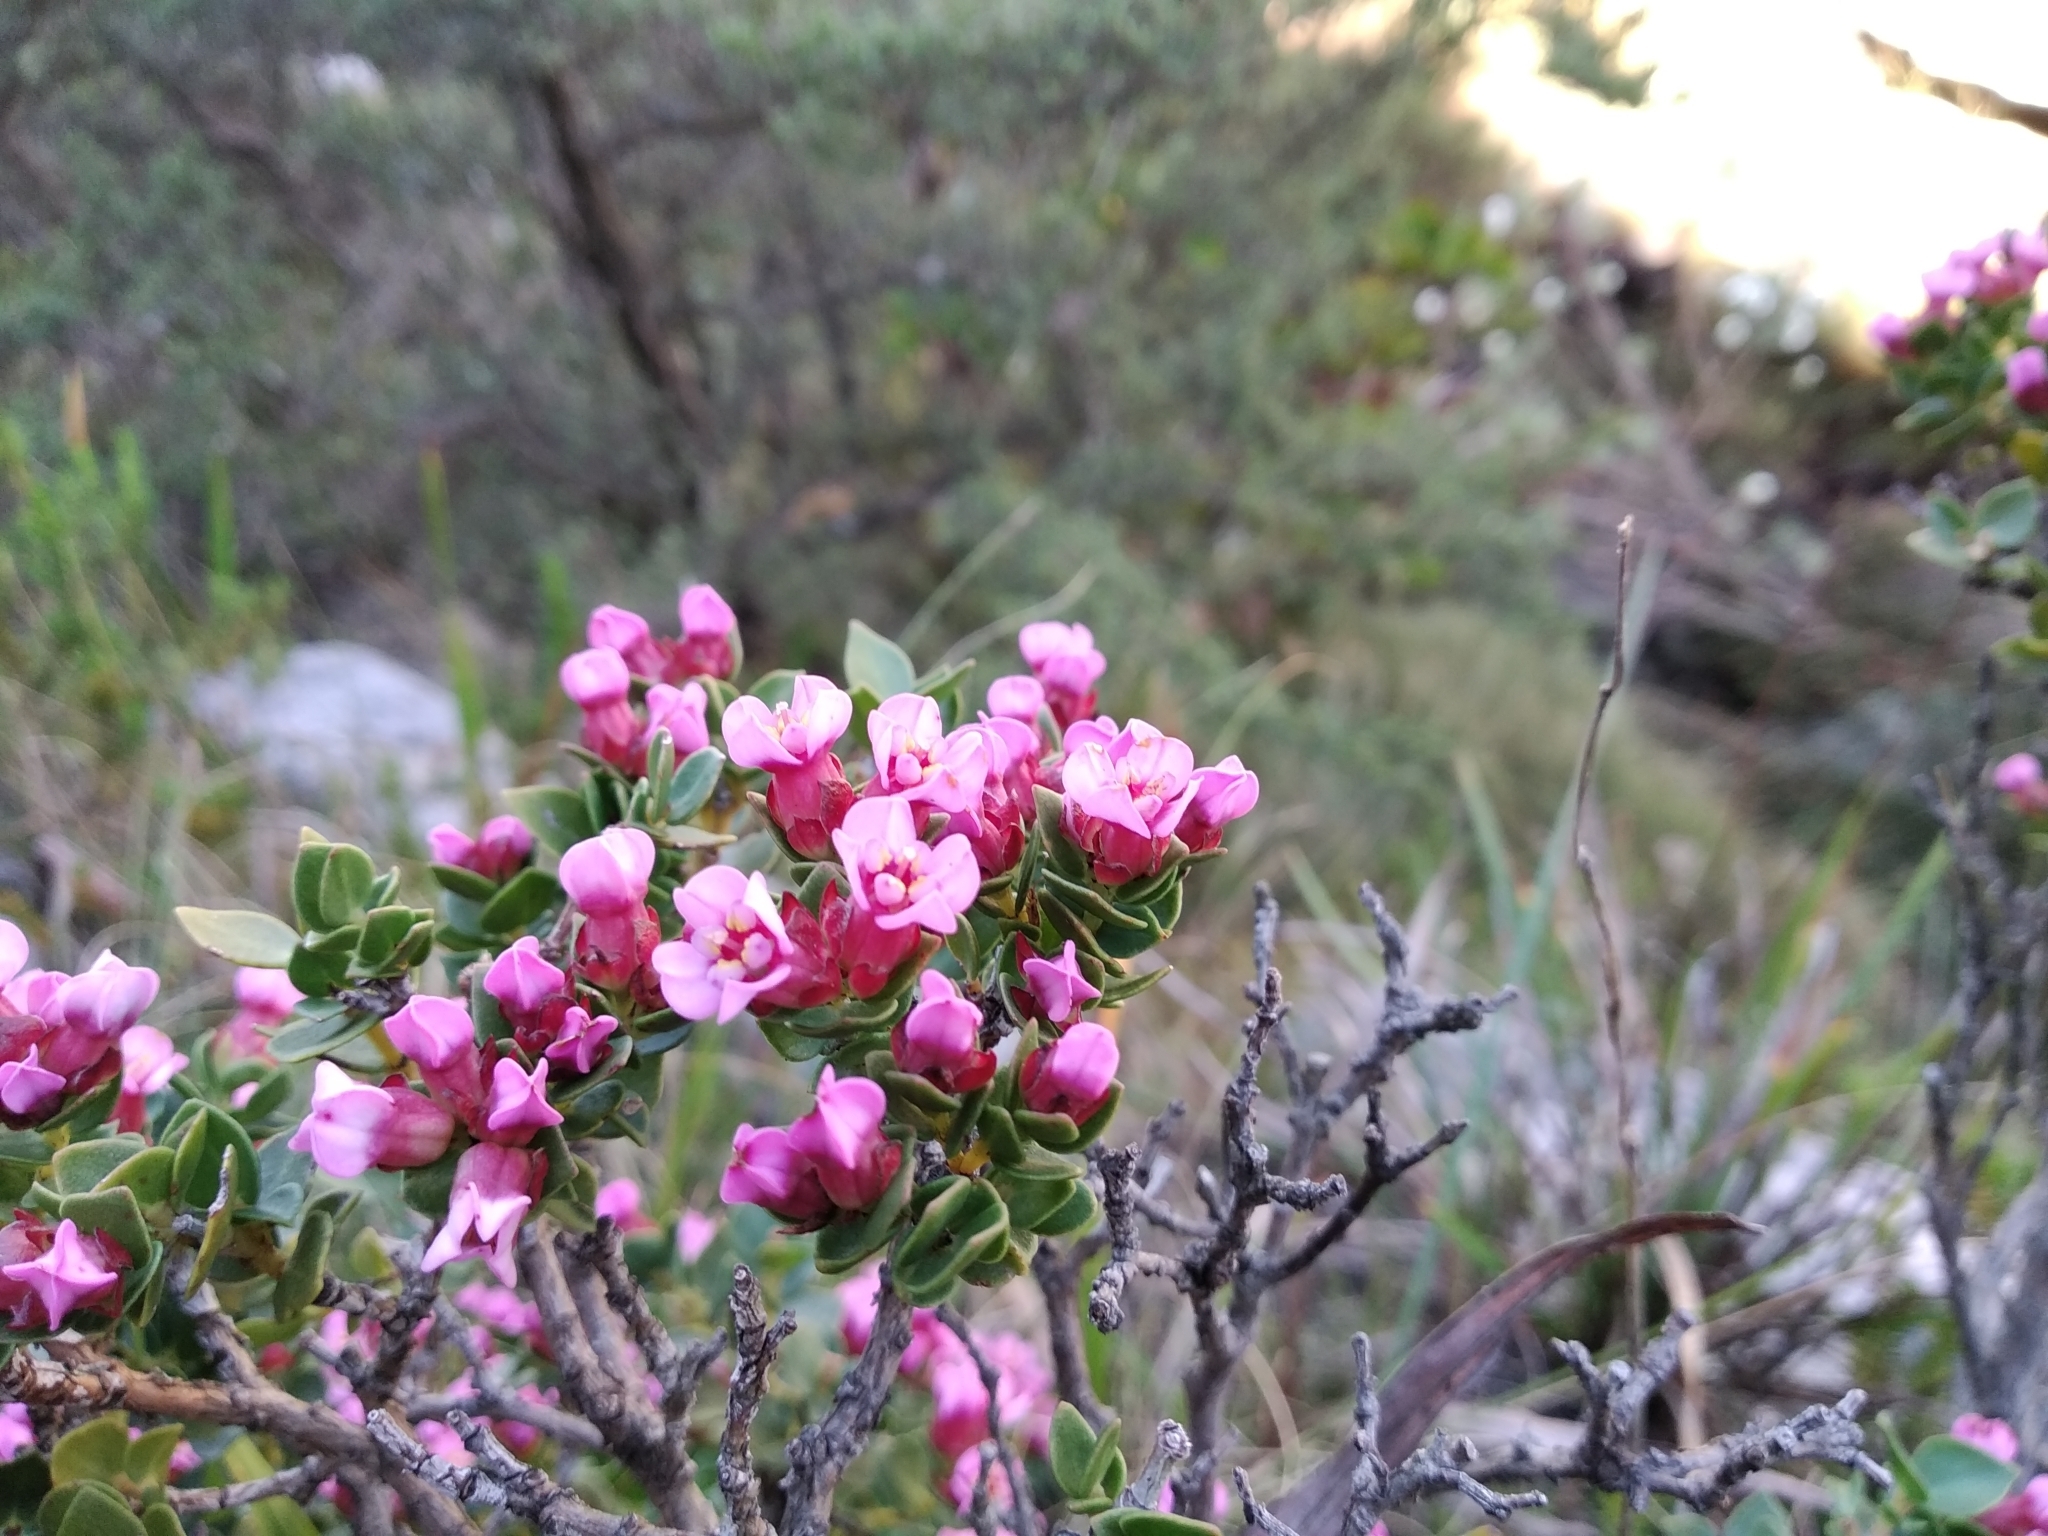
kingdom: Plantae
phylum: Tracheophyta
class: Magnoliopsida
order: Myrtales
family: Penaeaceae
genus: Brachysiphon
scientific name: Brachysiphon fucatus
